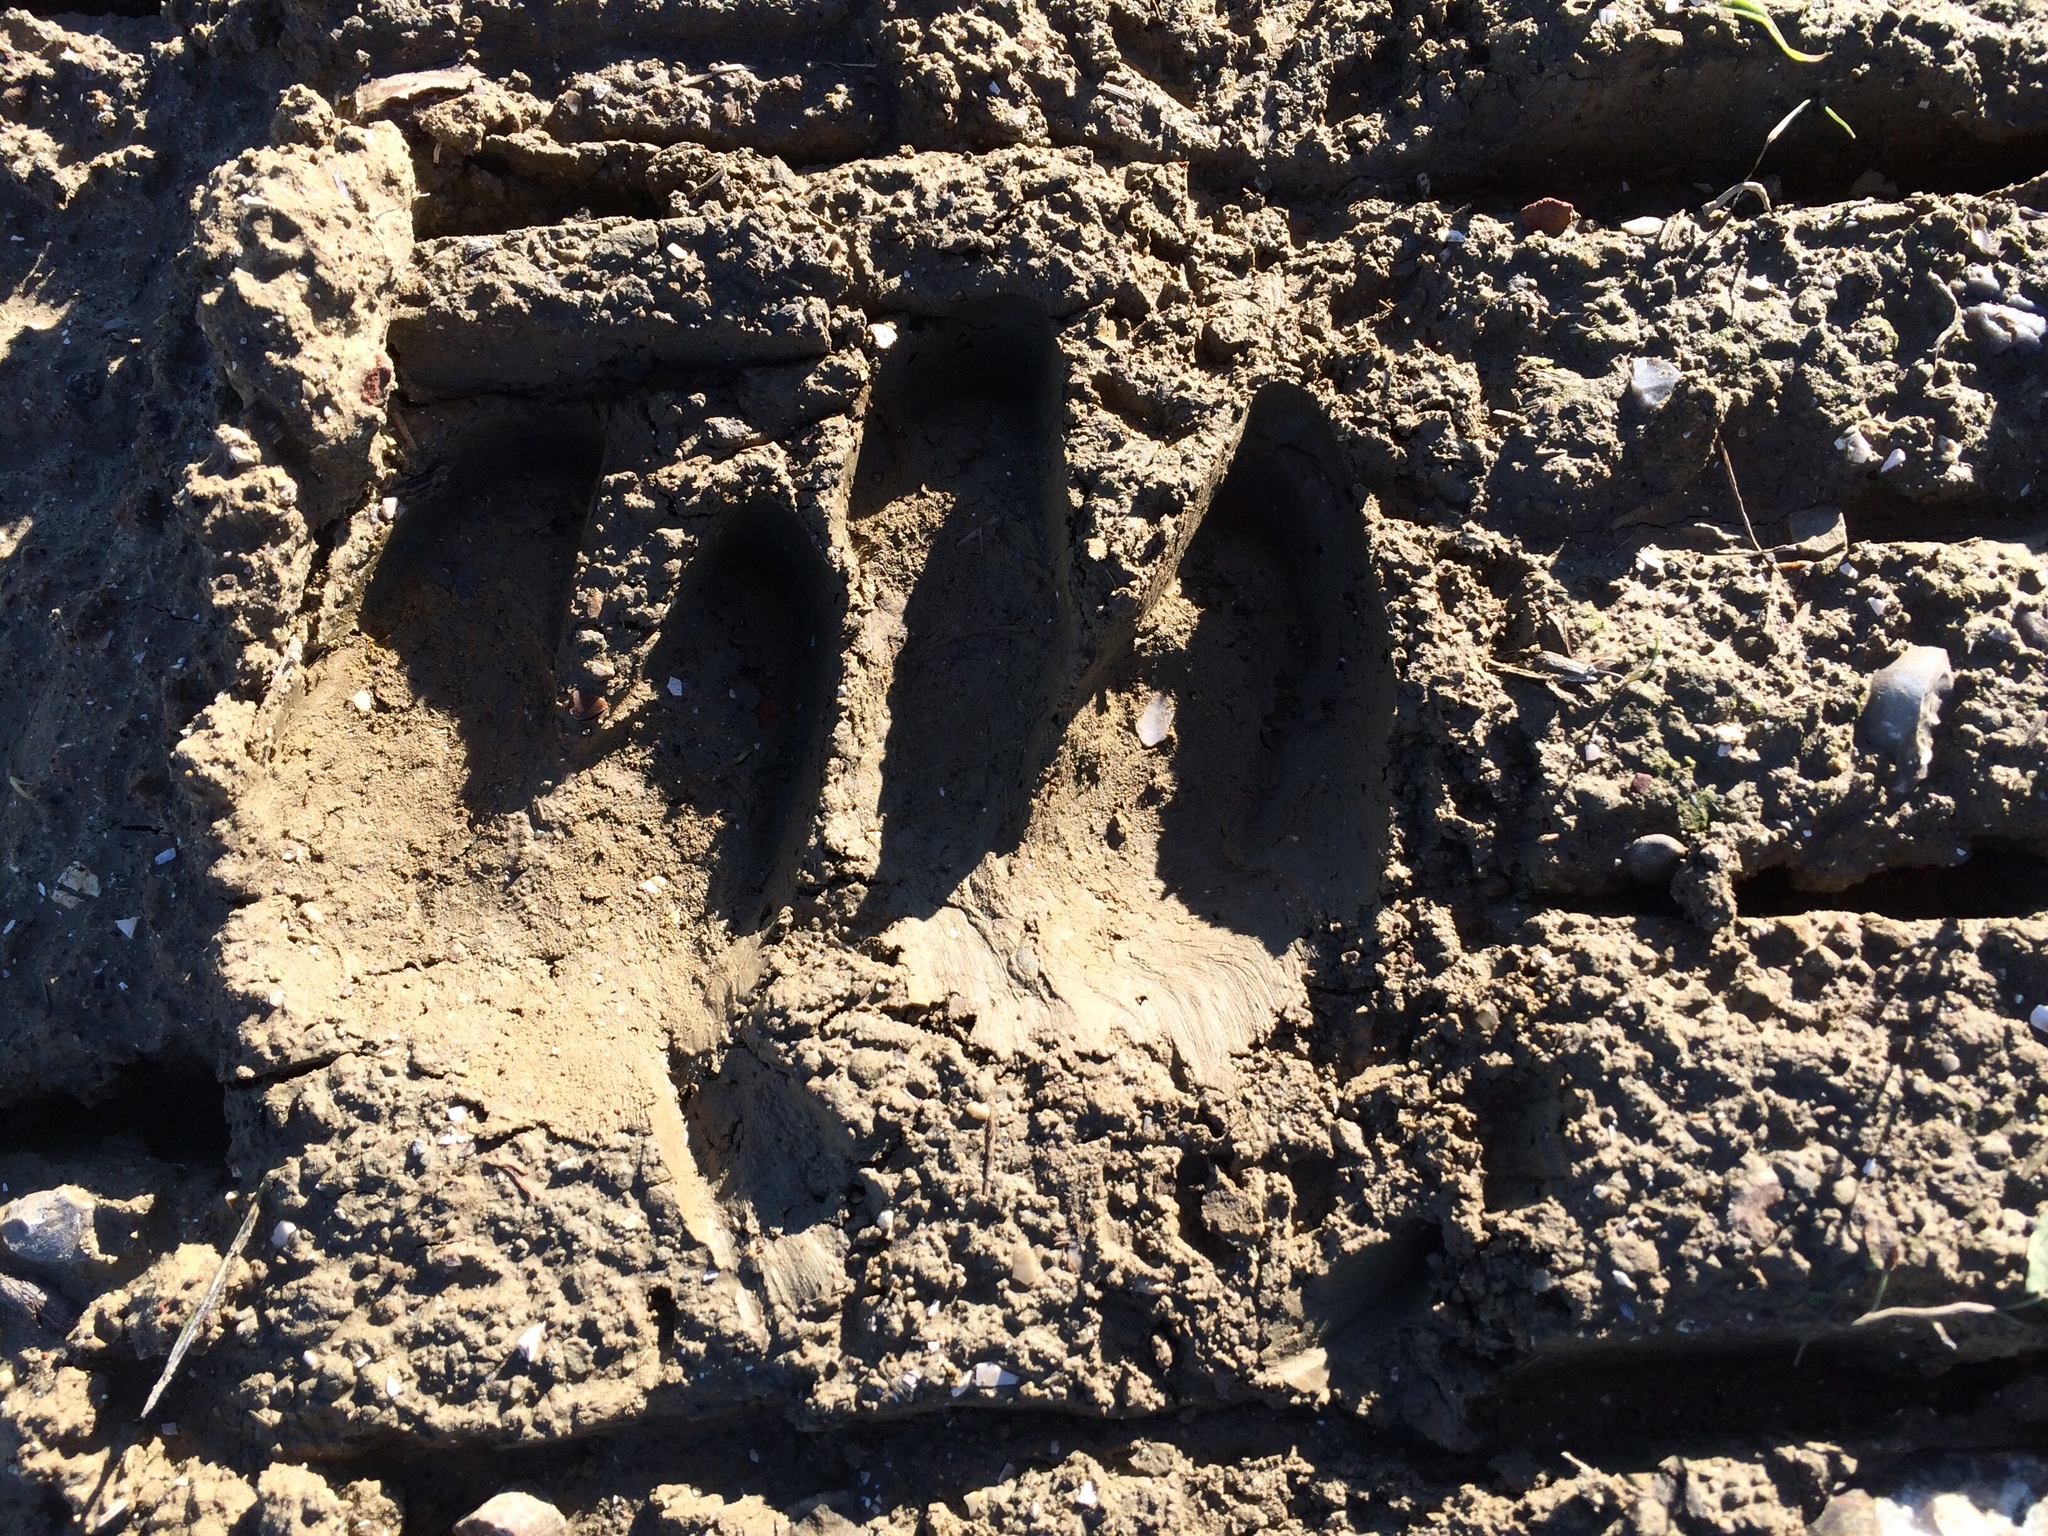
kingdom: Animalia
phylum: Chordata
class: Mammalia
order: Artiodactyla
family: Suidae
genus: Sus
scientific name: Sus scrofa
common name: Wild boar
